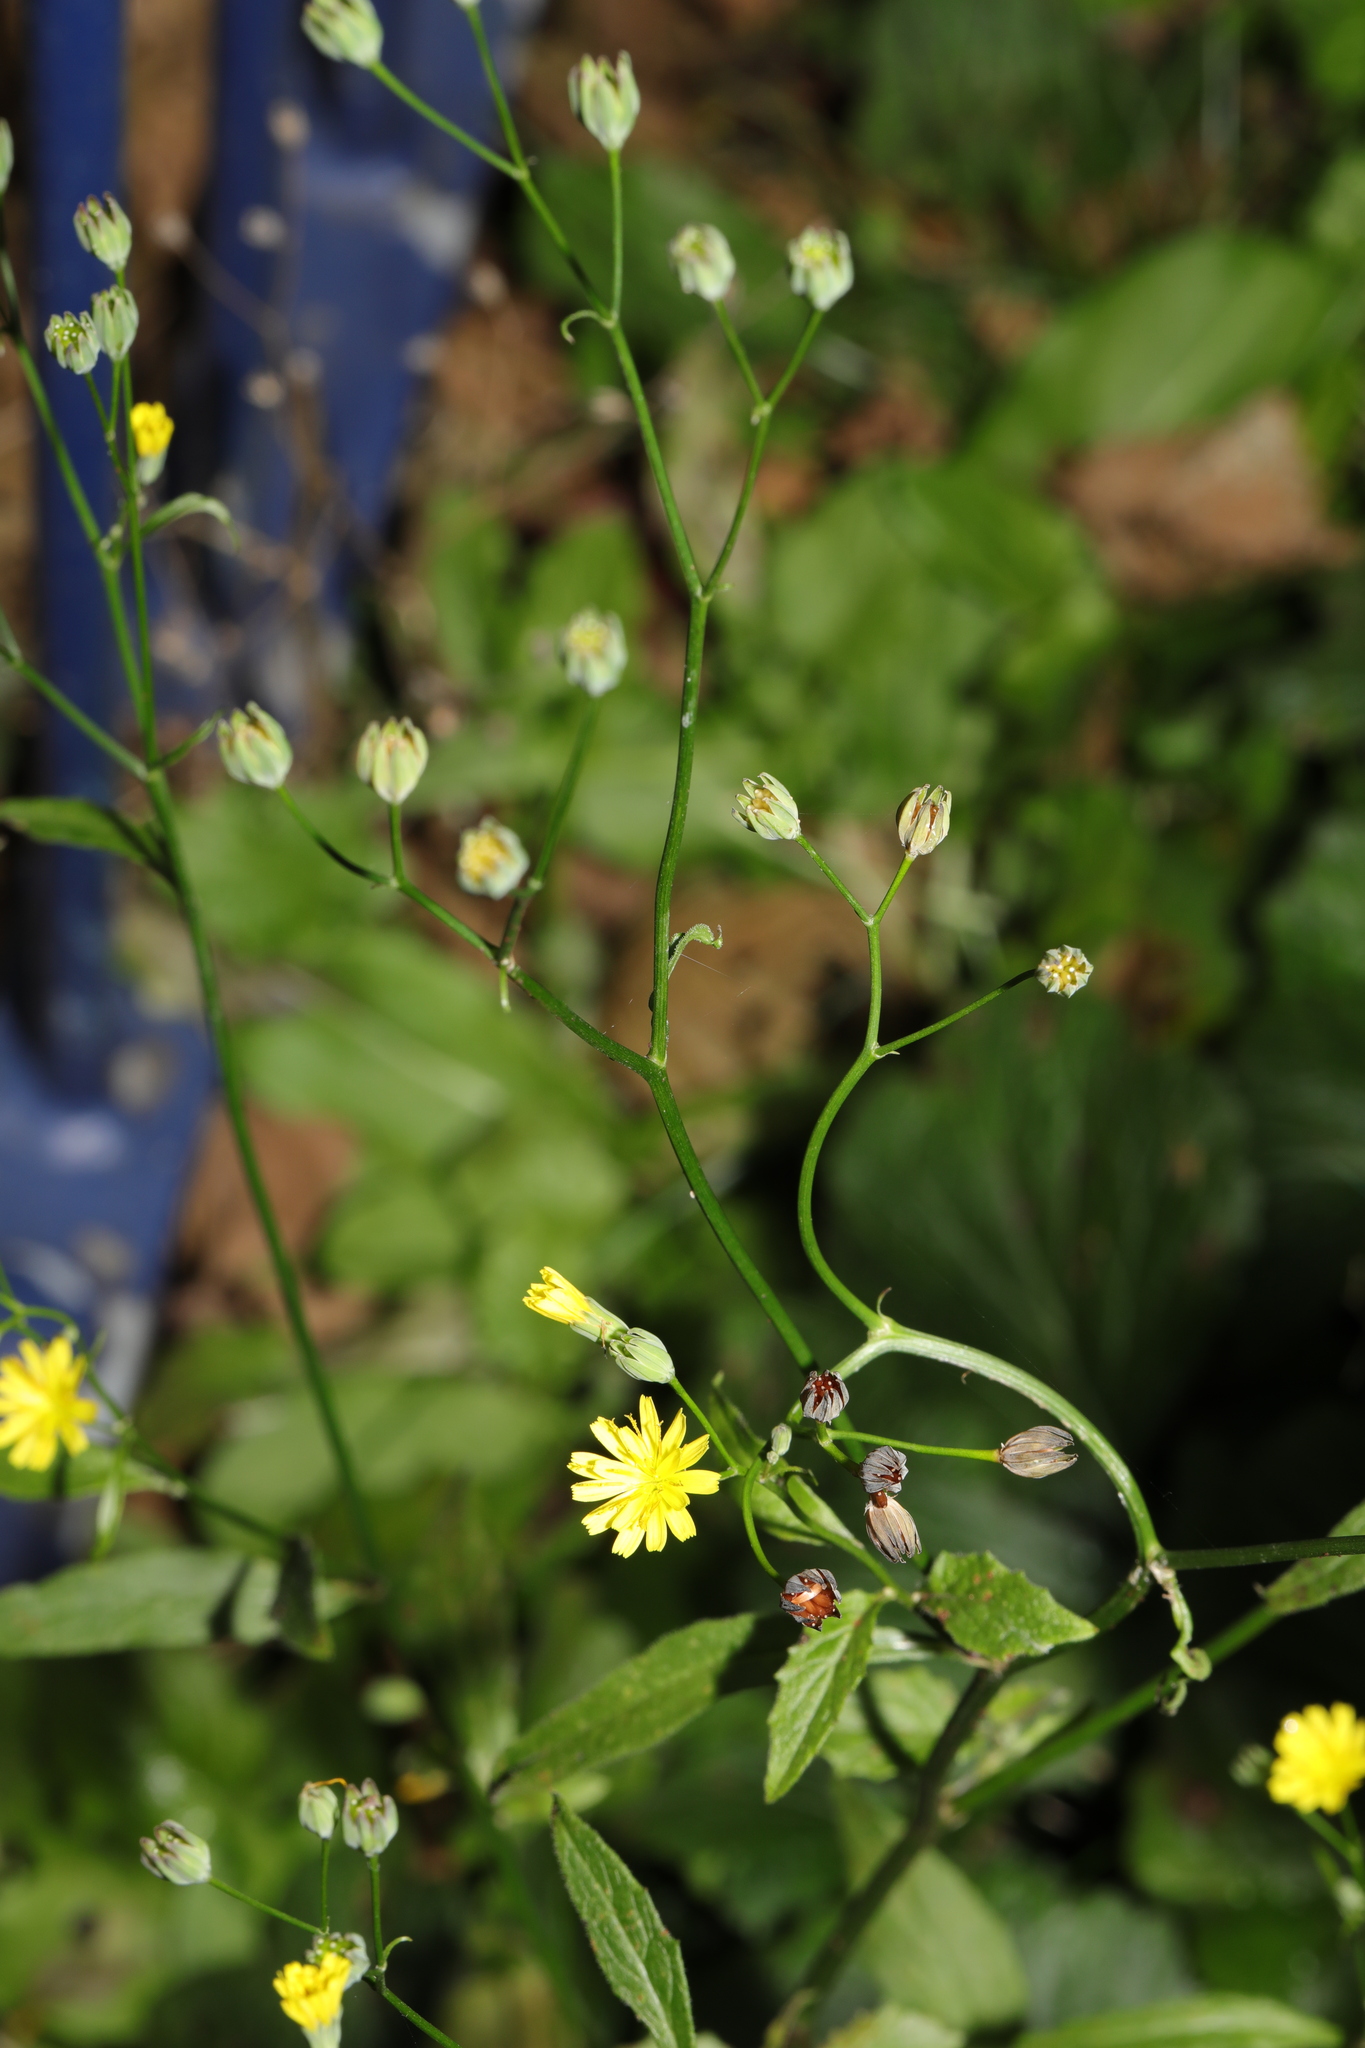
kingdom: Plantae
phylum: Tracheophyta
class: Magnoliopsida
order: Asterales
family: Asteraceae
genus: Lapsana
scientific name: Lapsana communis
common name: Nipplewort
